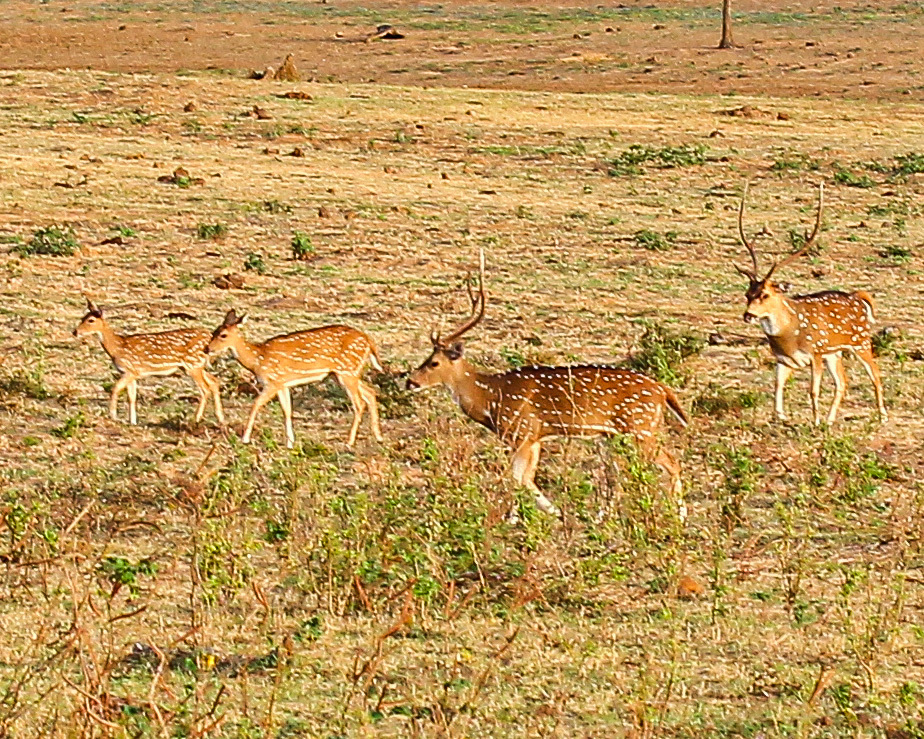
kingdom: Animalia
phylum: Chordata
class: Mammalia
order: Artiodactyla
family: Cervidae
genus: Axis
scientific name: Axis axis
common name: Chital
